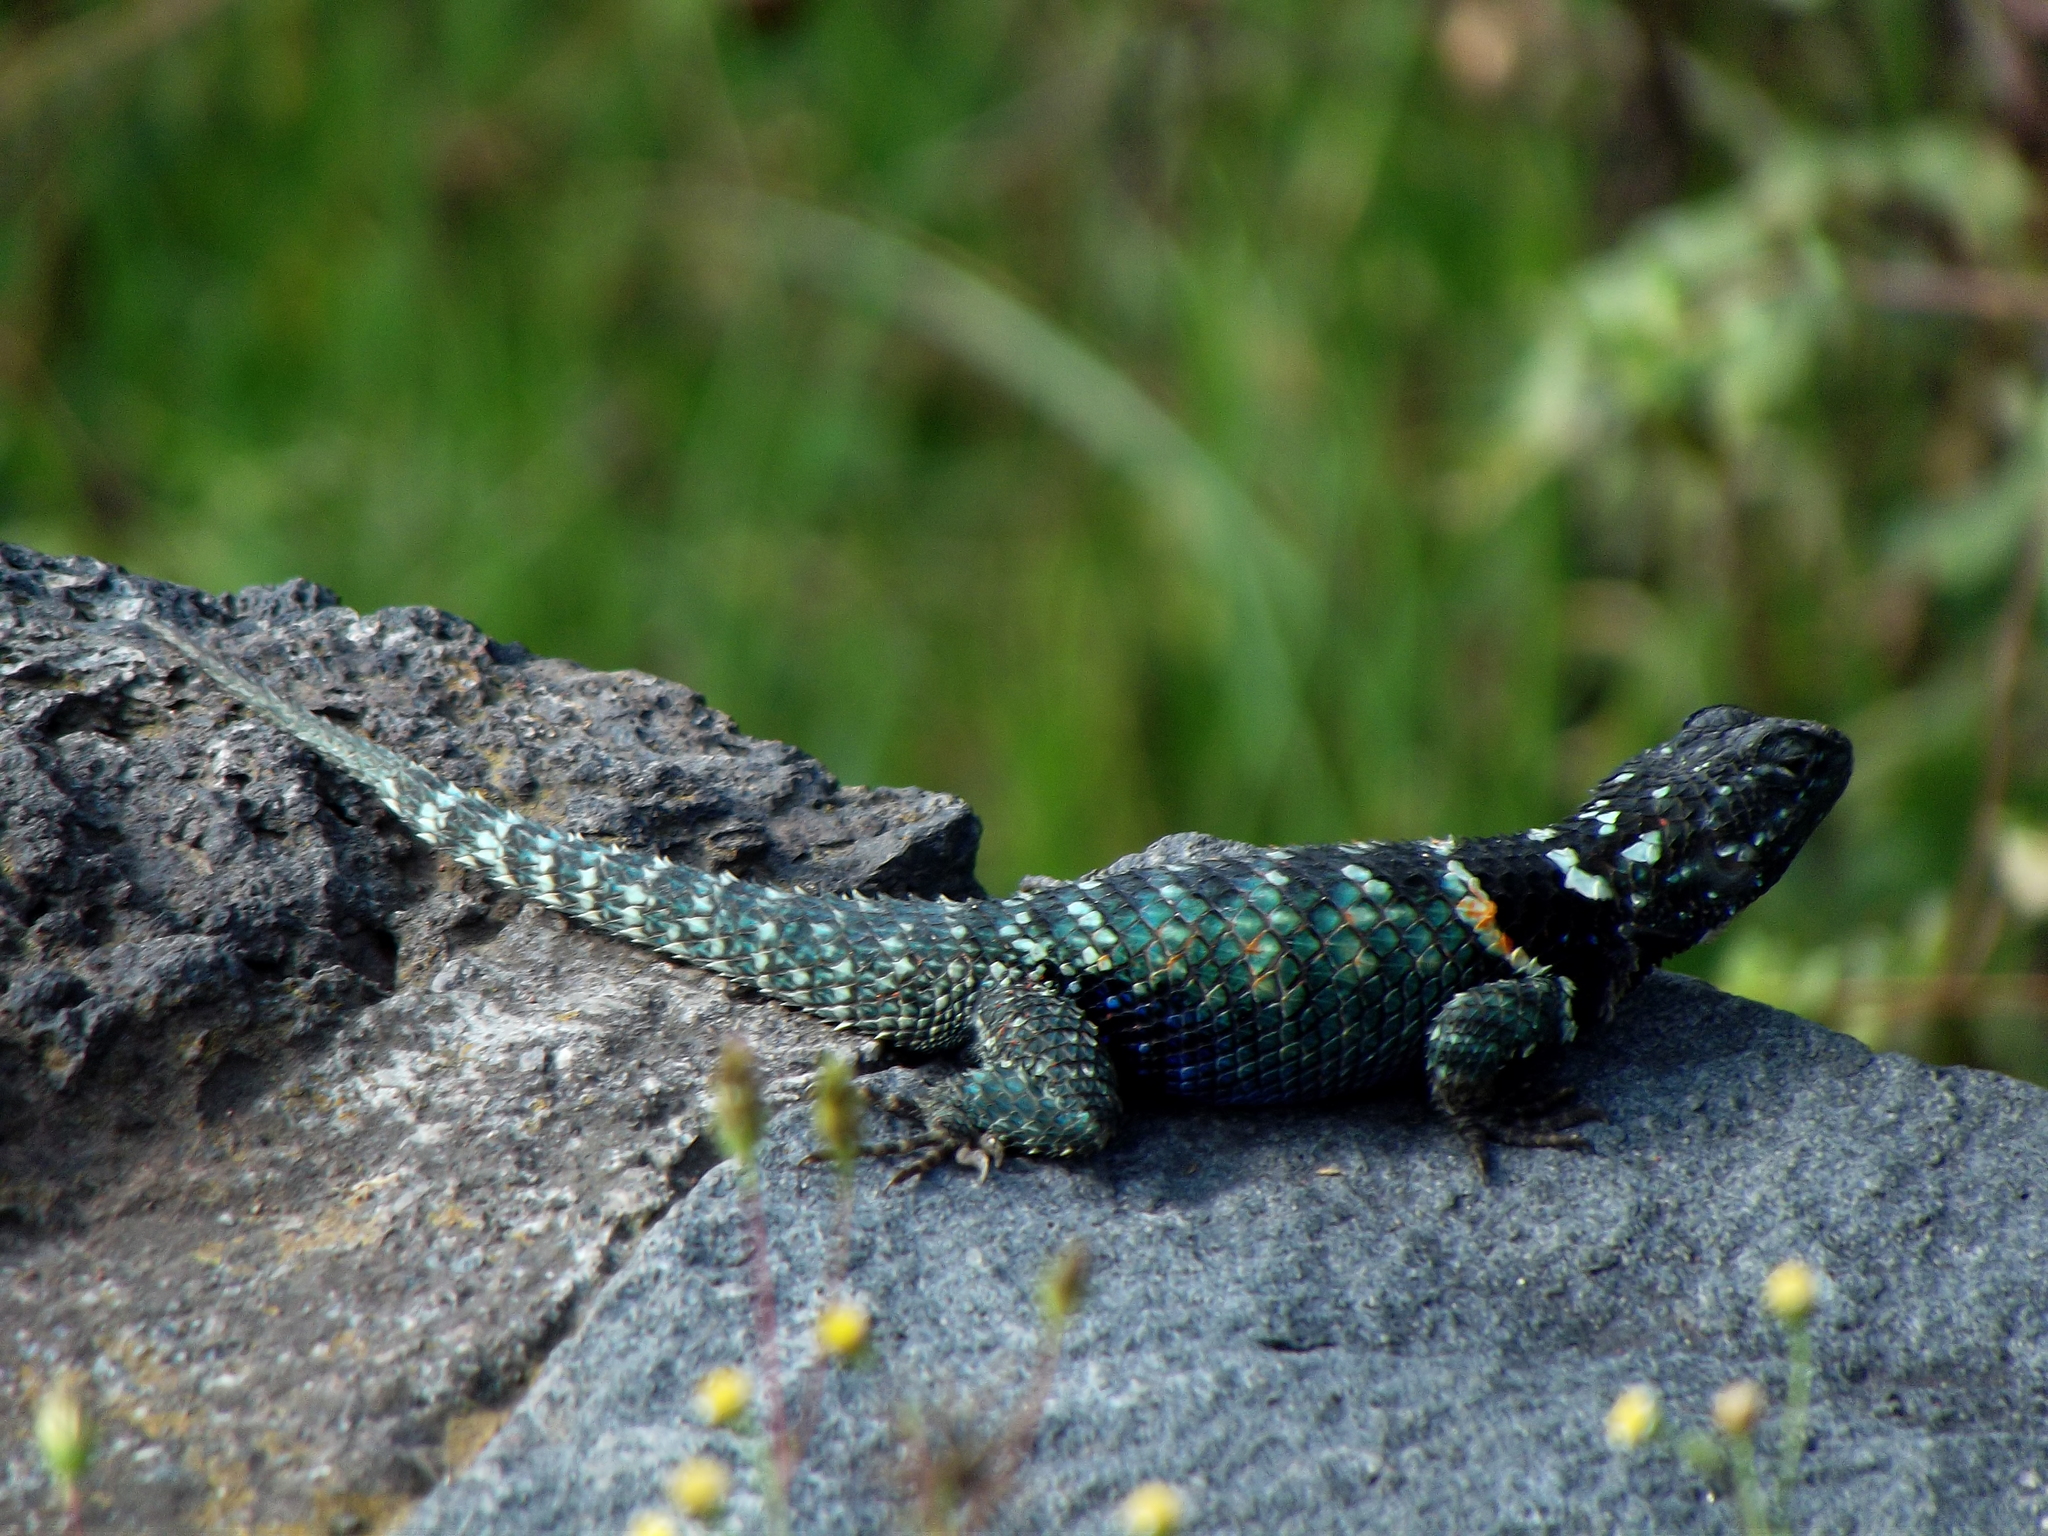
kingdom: Animalia
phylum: Chordata
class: Squamata
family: Phrynosomatidae
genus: Sceloporus
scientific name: Sceloporus torquatus
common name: Central plateau torquate lizard [melanogaster]
